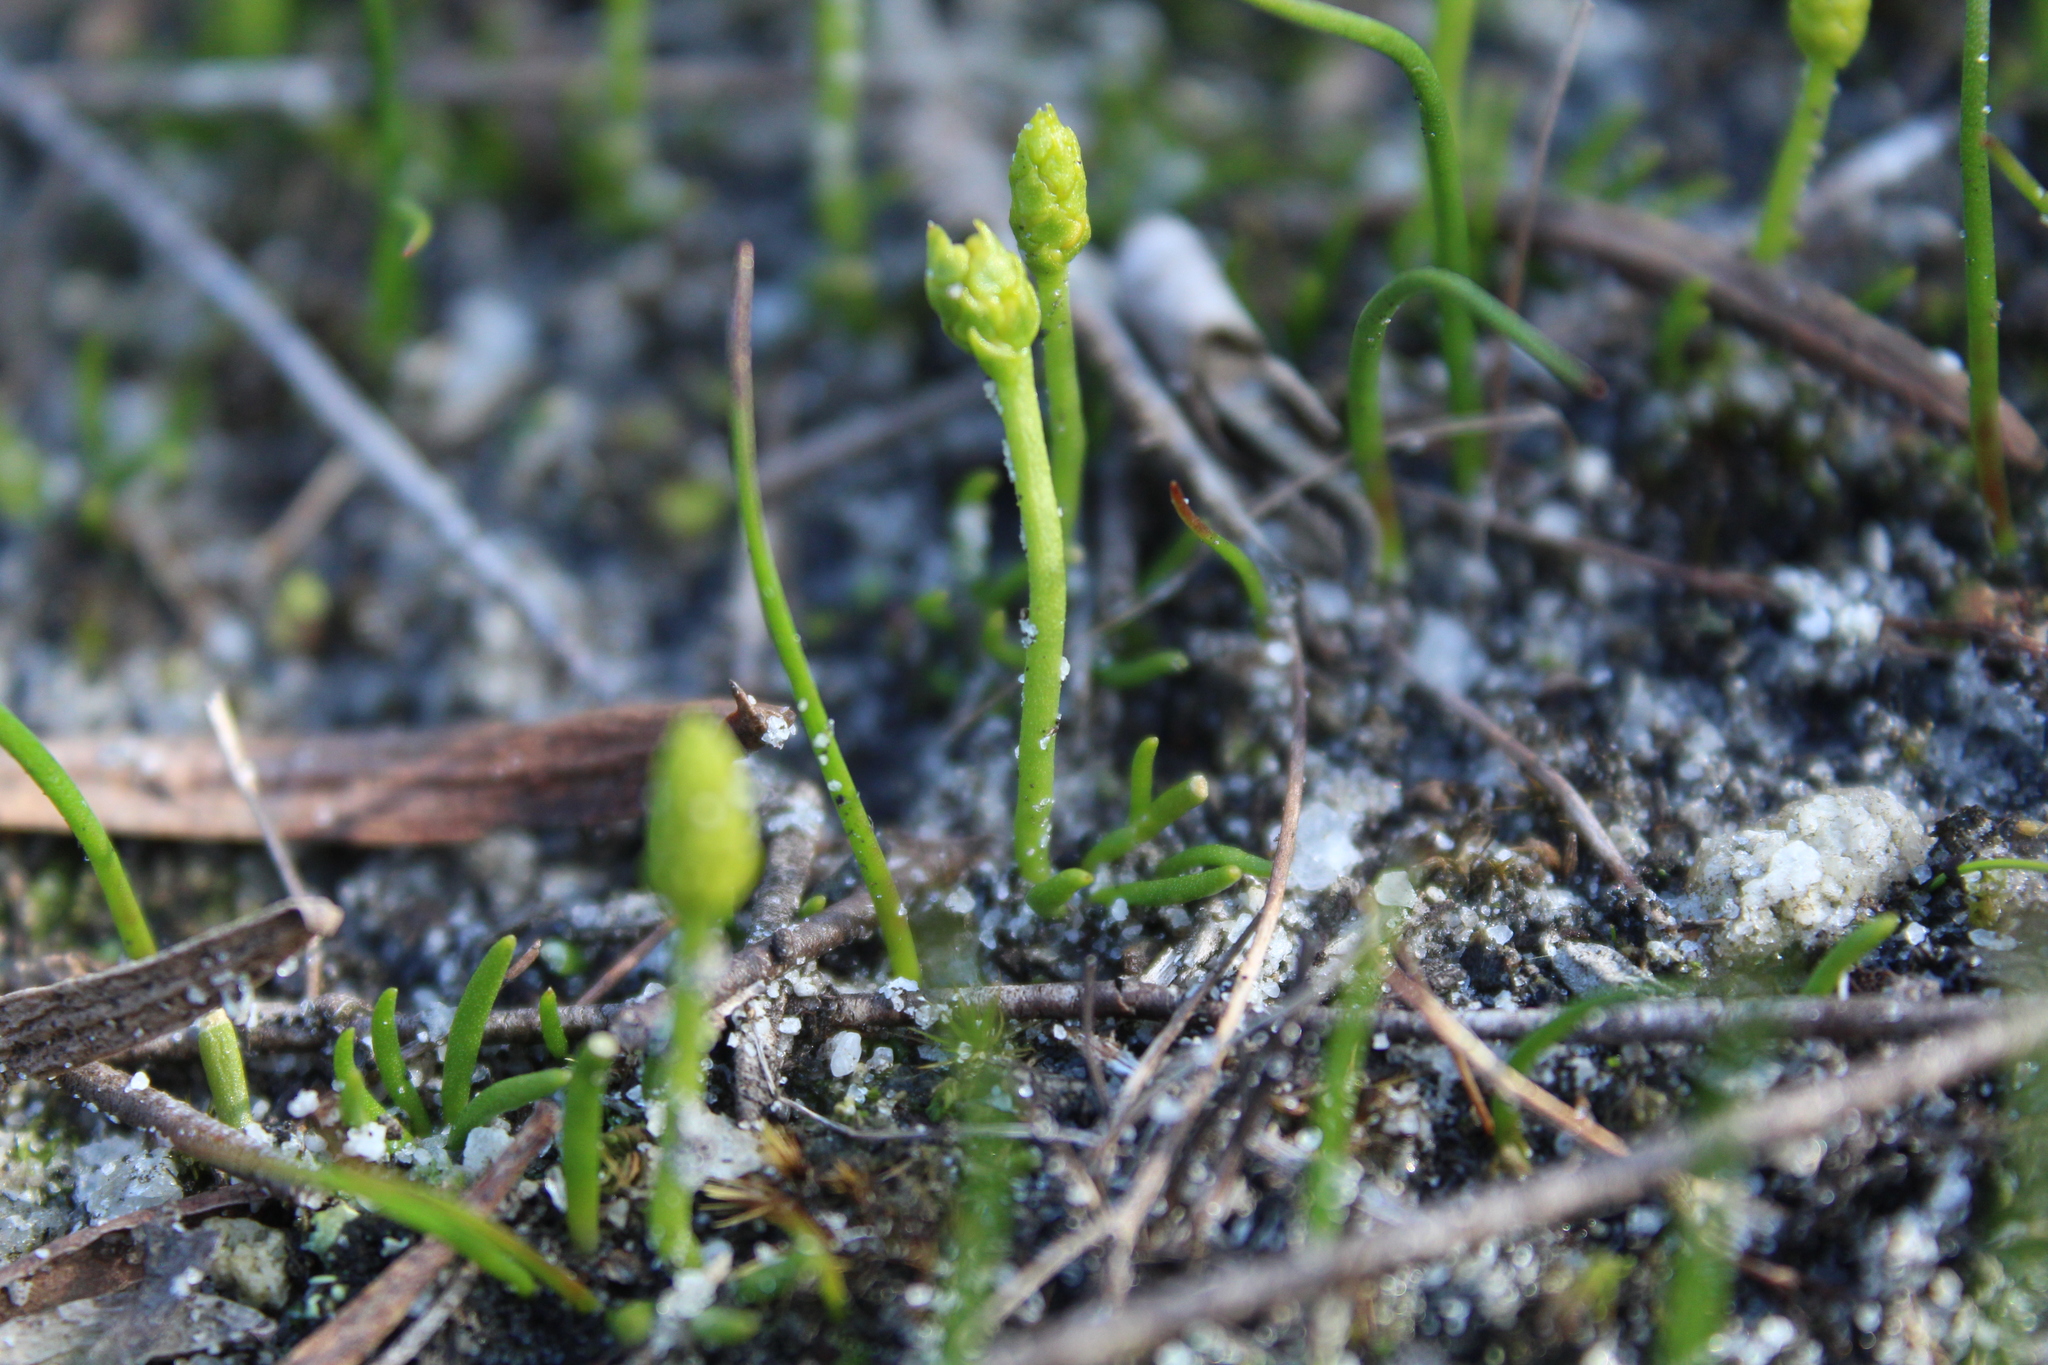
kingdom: Plantae
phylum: Tracheophyta
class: Lycopodiopsida
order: Lycopodiales
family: Lycopodiaceae
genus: Phylloglossum
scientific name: Phylloglossum drummondii
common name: Pigmy-club-moss
